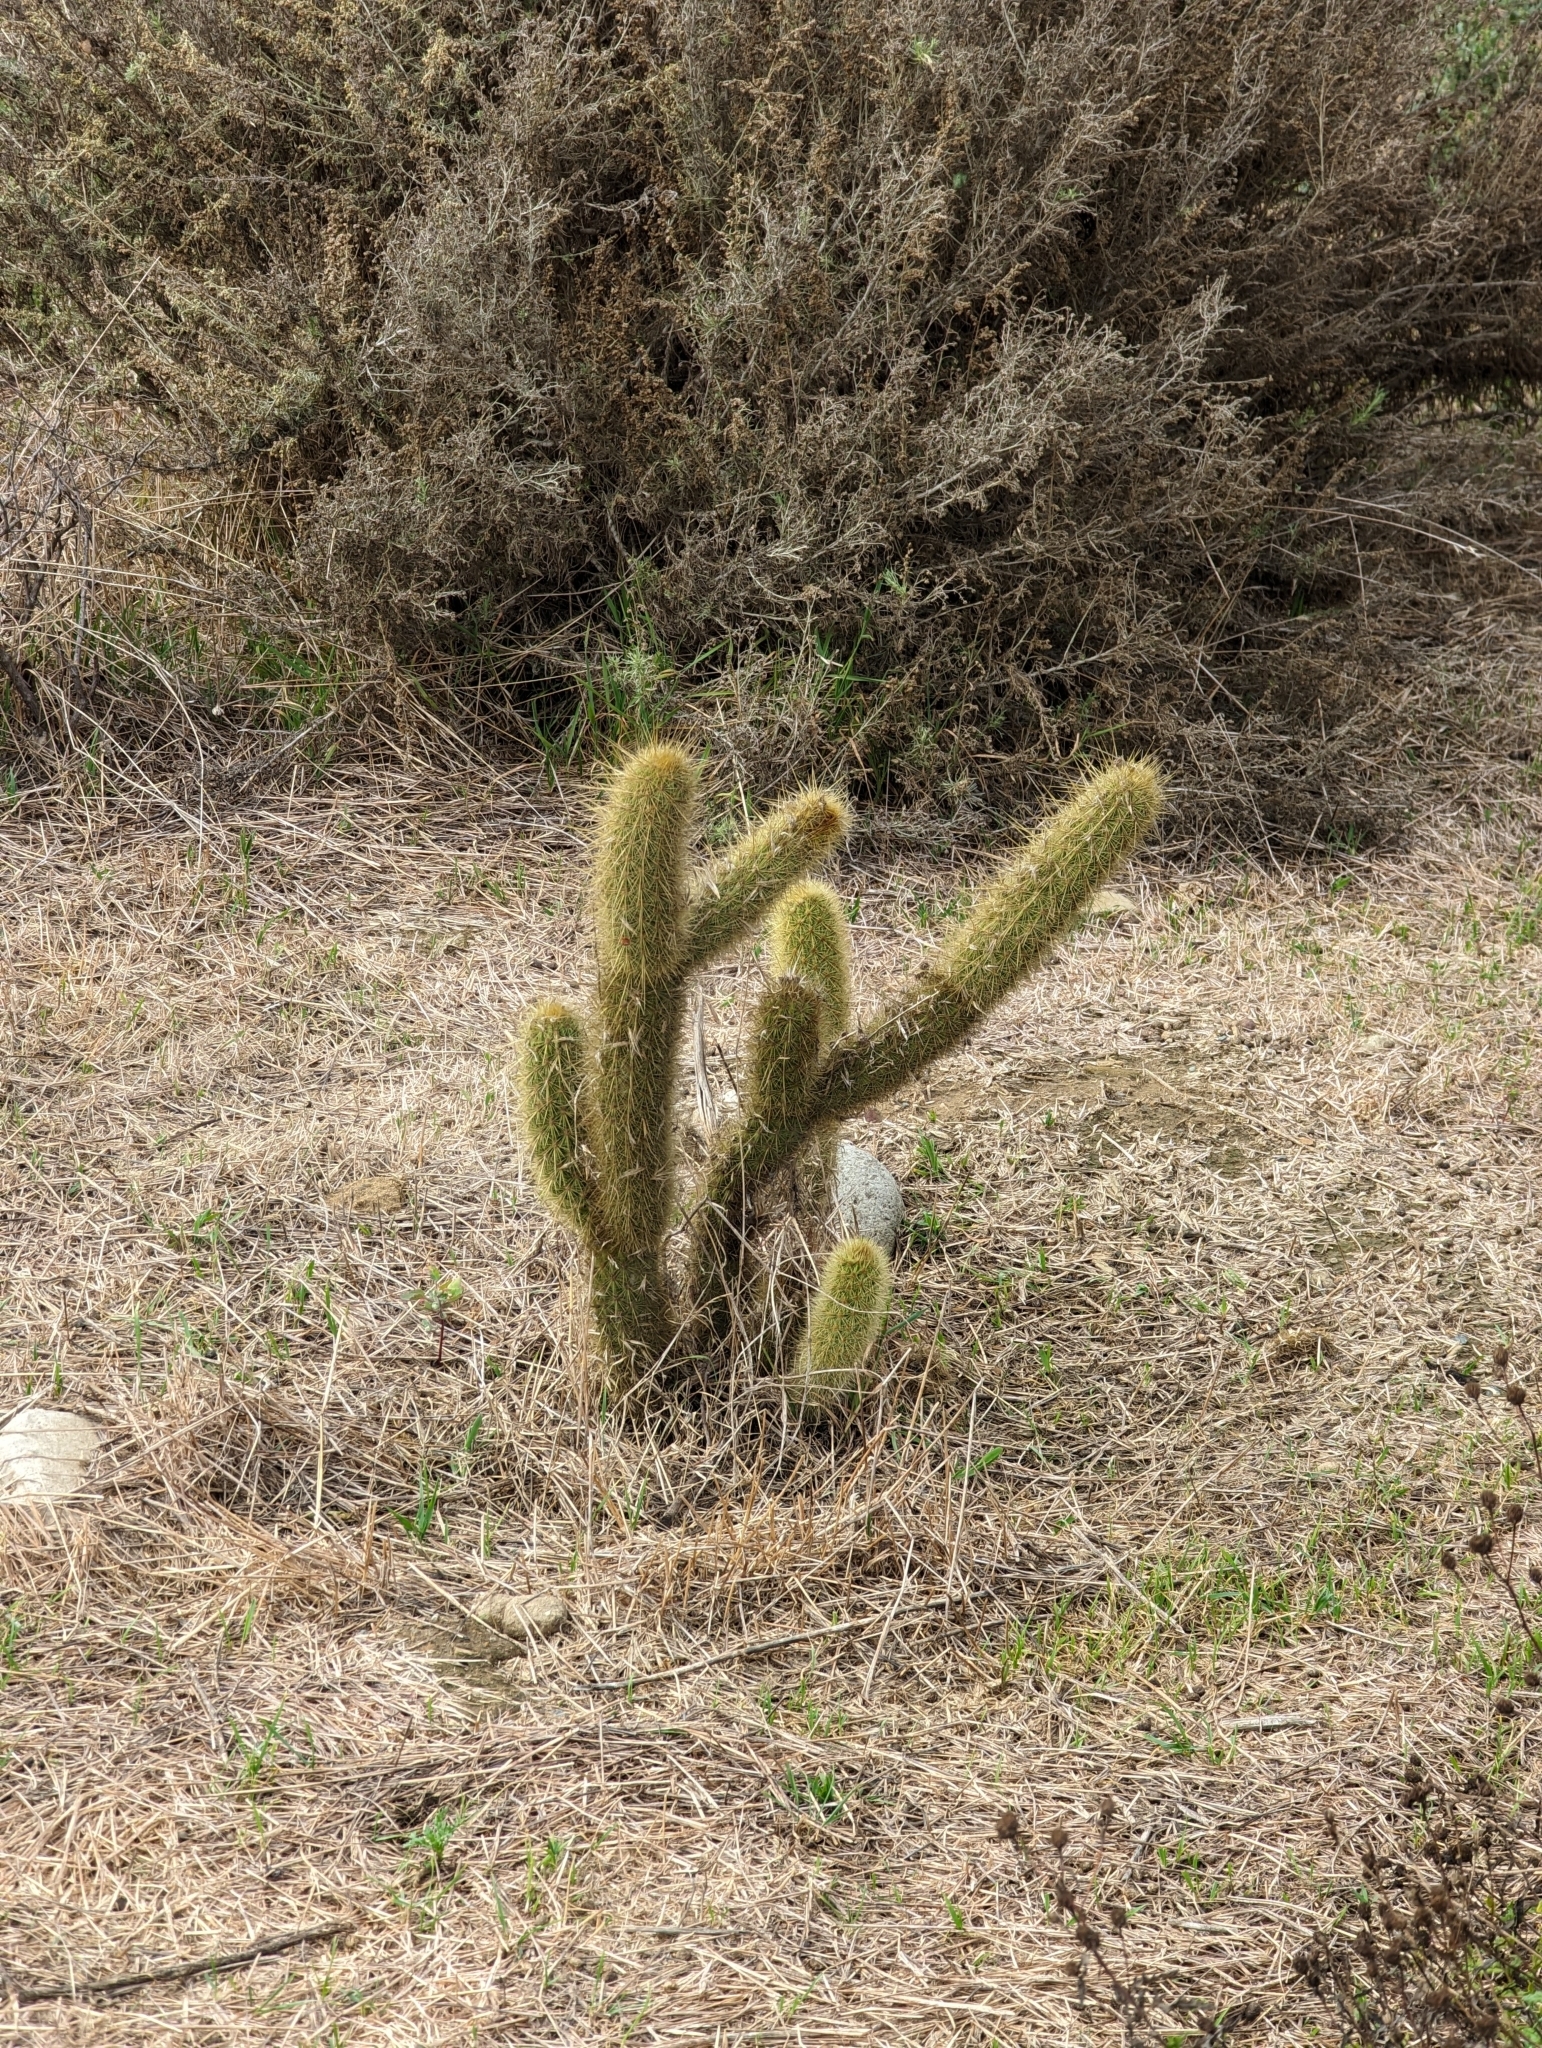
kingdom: Plantae
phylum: Tracheophyta
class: Magnoliopsida
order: Caryophyllales
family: Cactaceae
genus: Bergerocactus
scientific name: Bergerocactus emoryi
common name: Golden snakecactus
